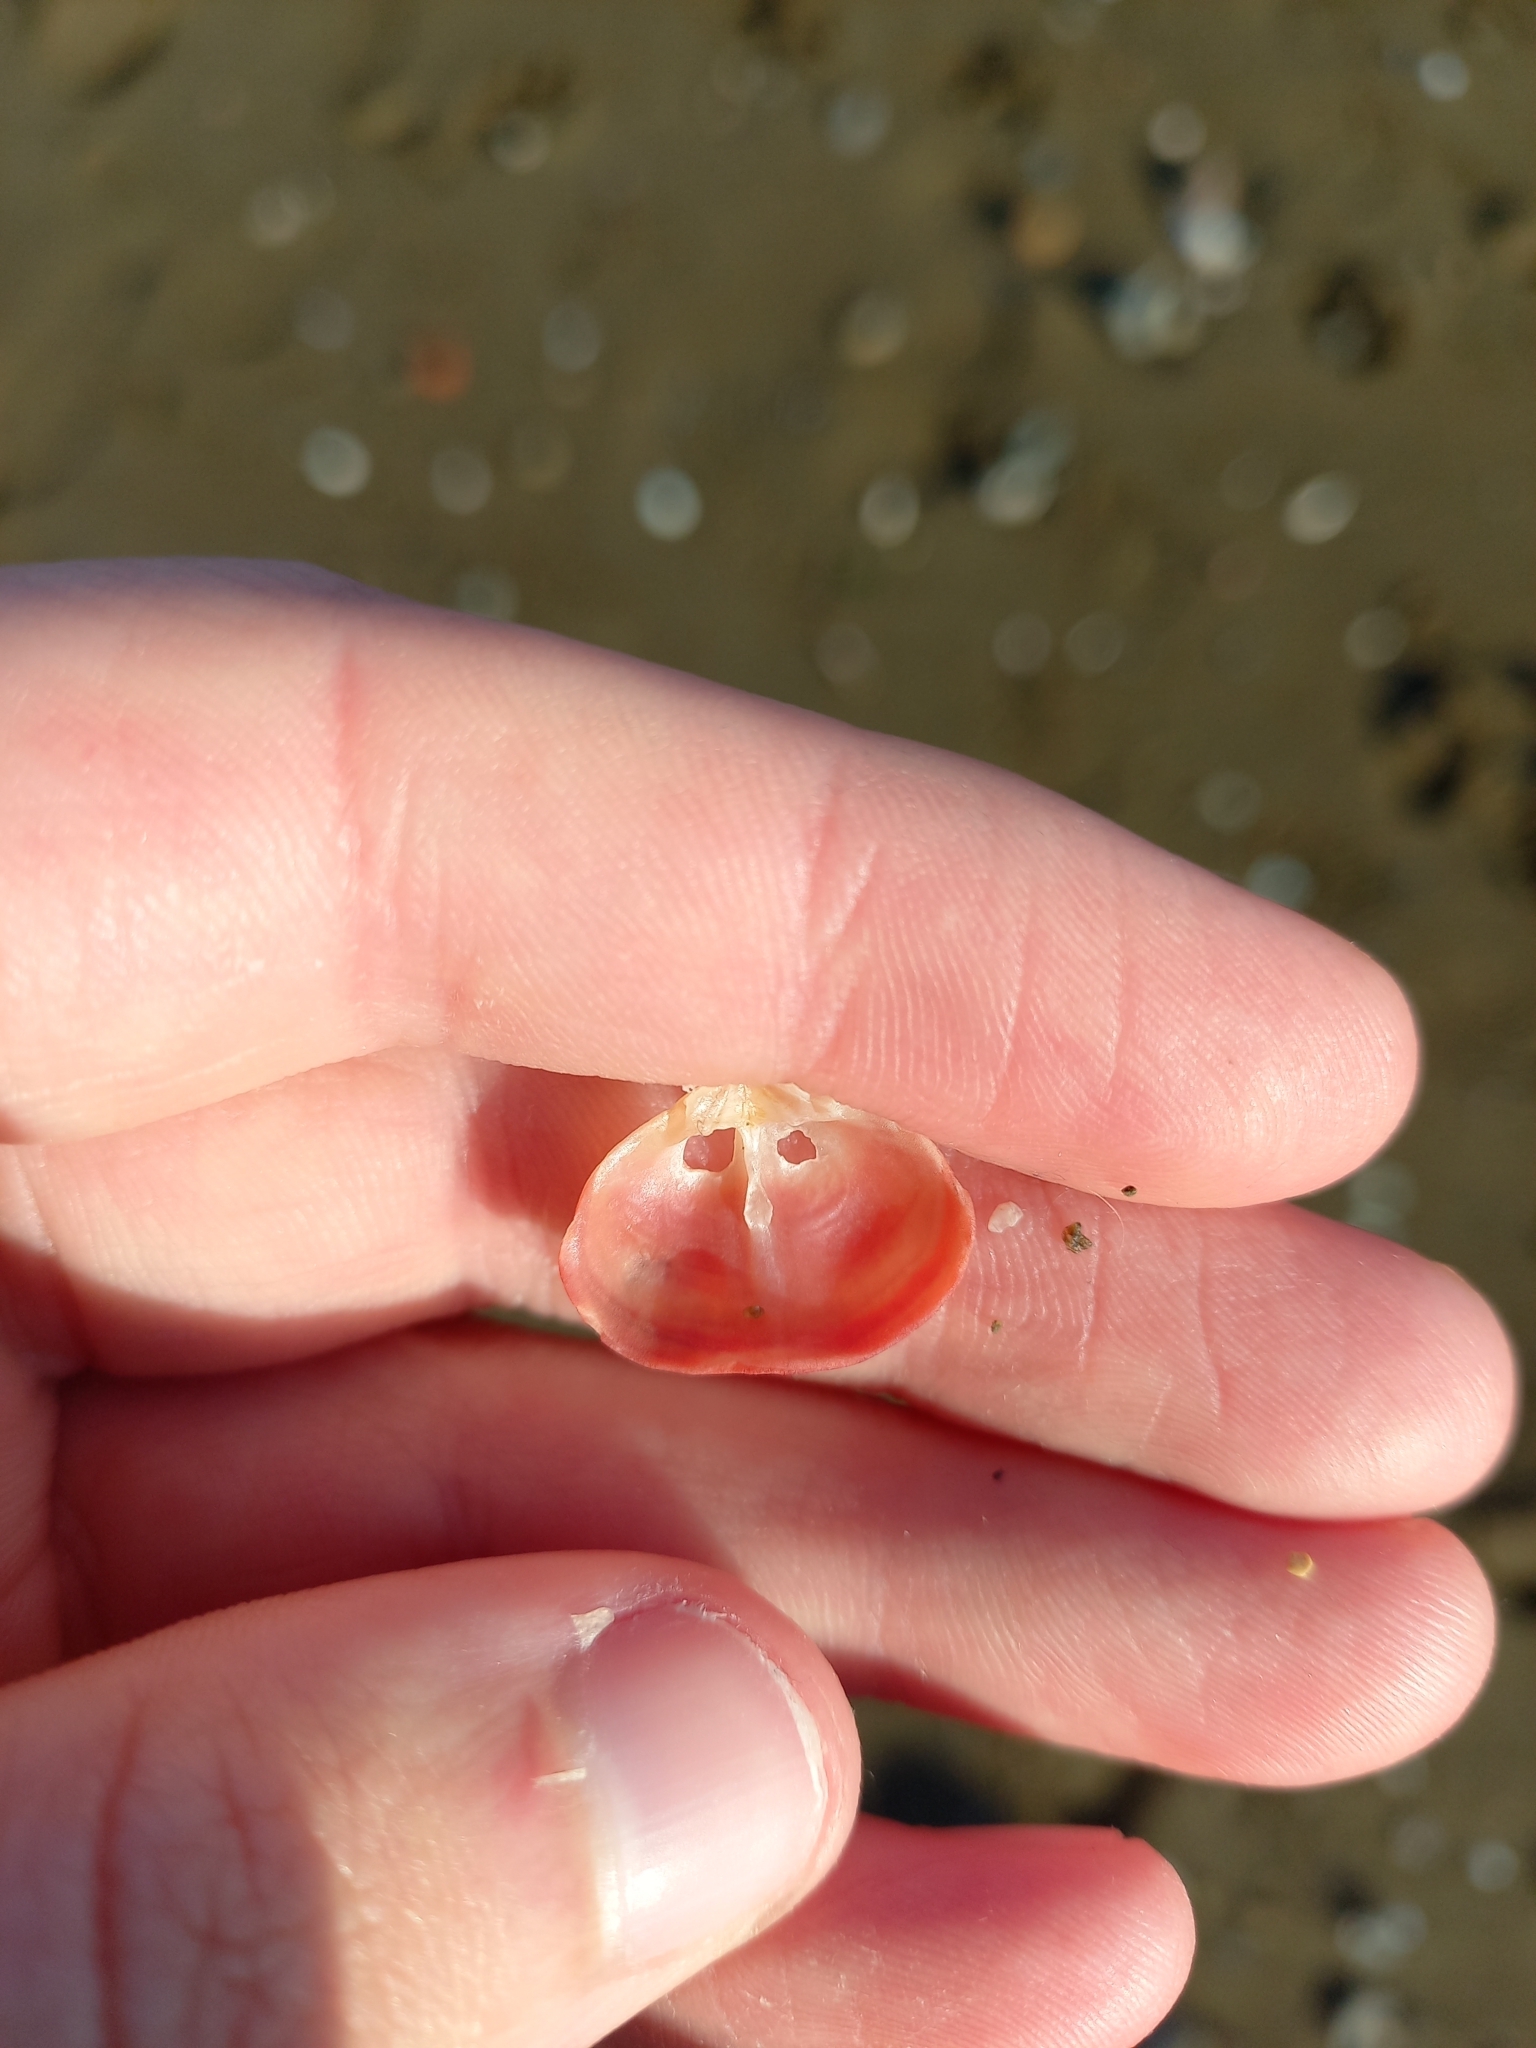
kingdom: Animalia
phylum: Brachiopoda
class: Rhynchonellata
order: Terebratulida
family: Terebratellidae
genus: Calloria
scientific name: Calloria inconspicua
